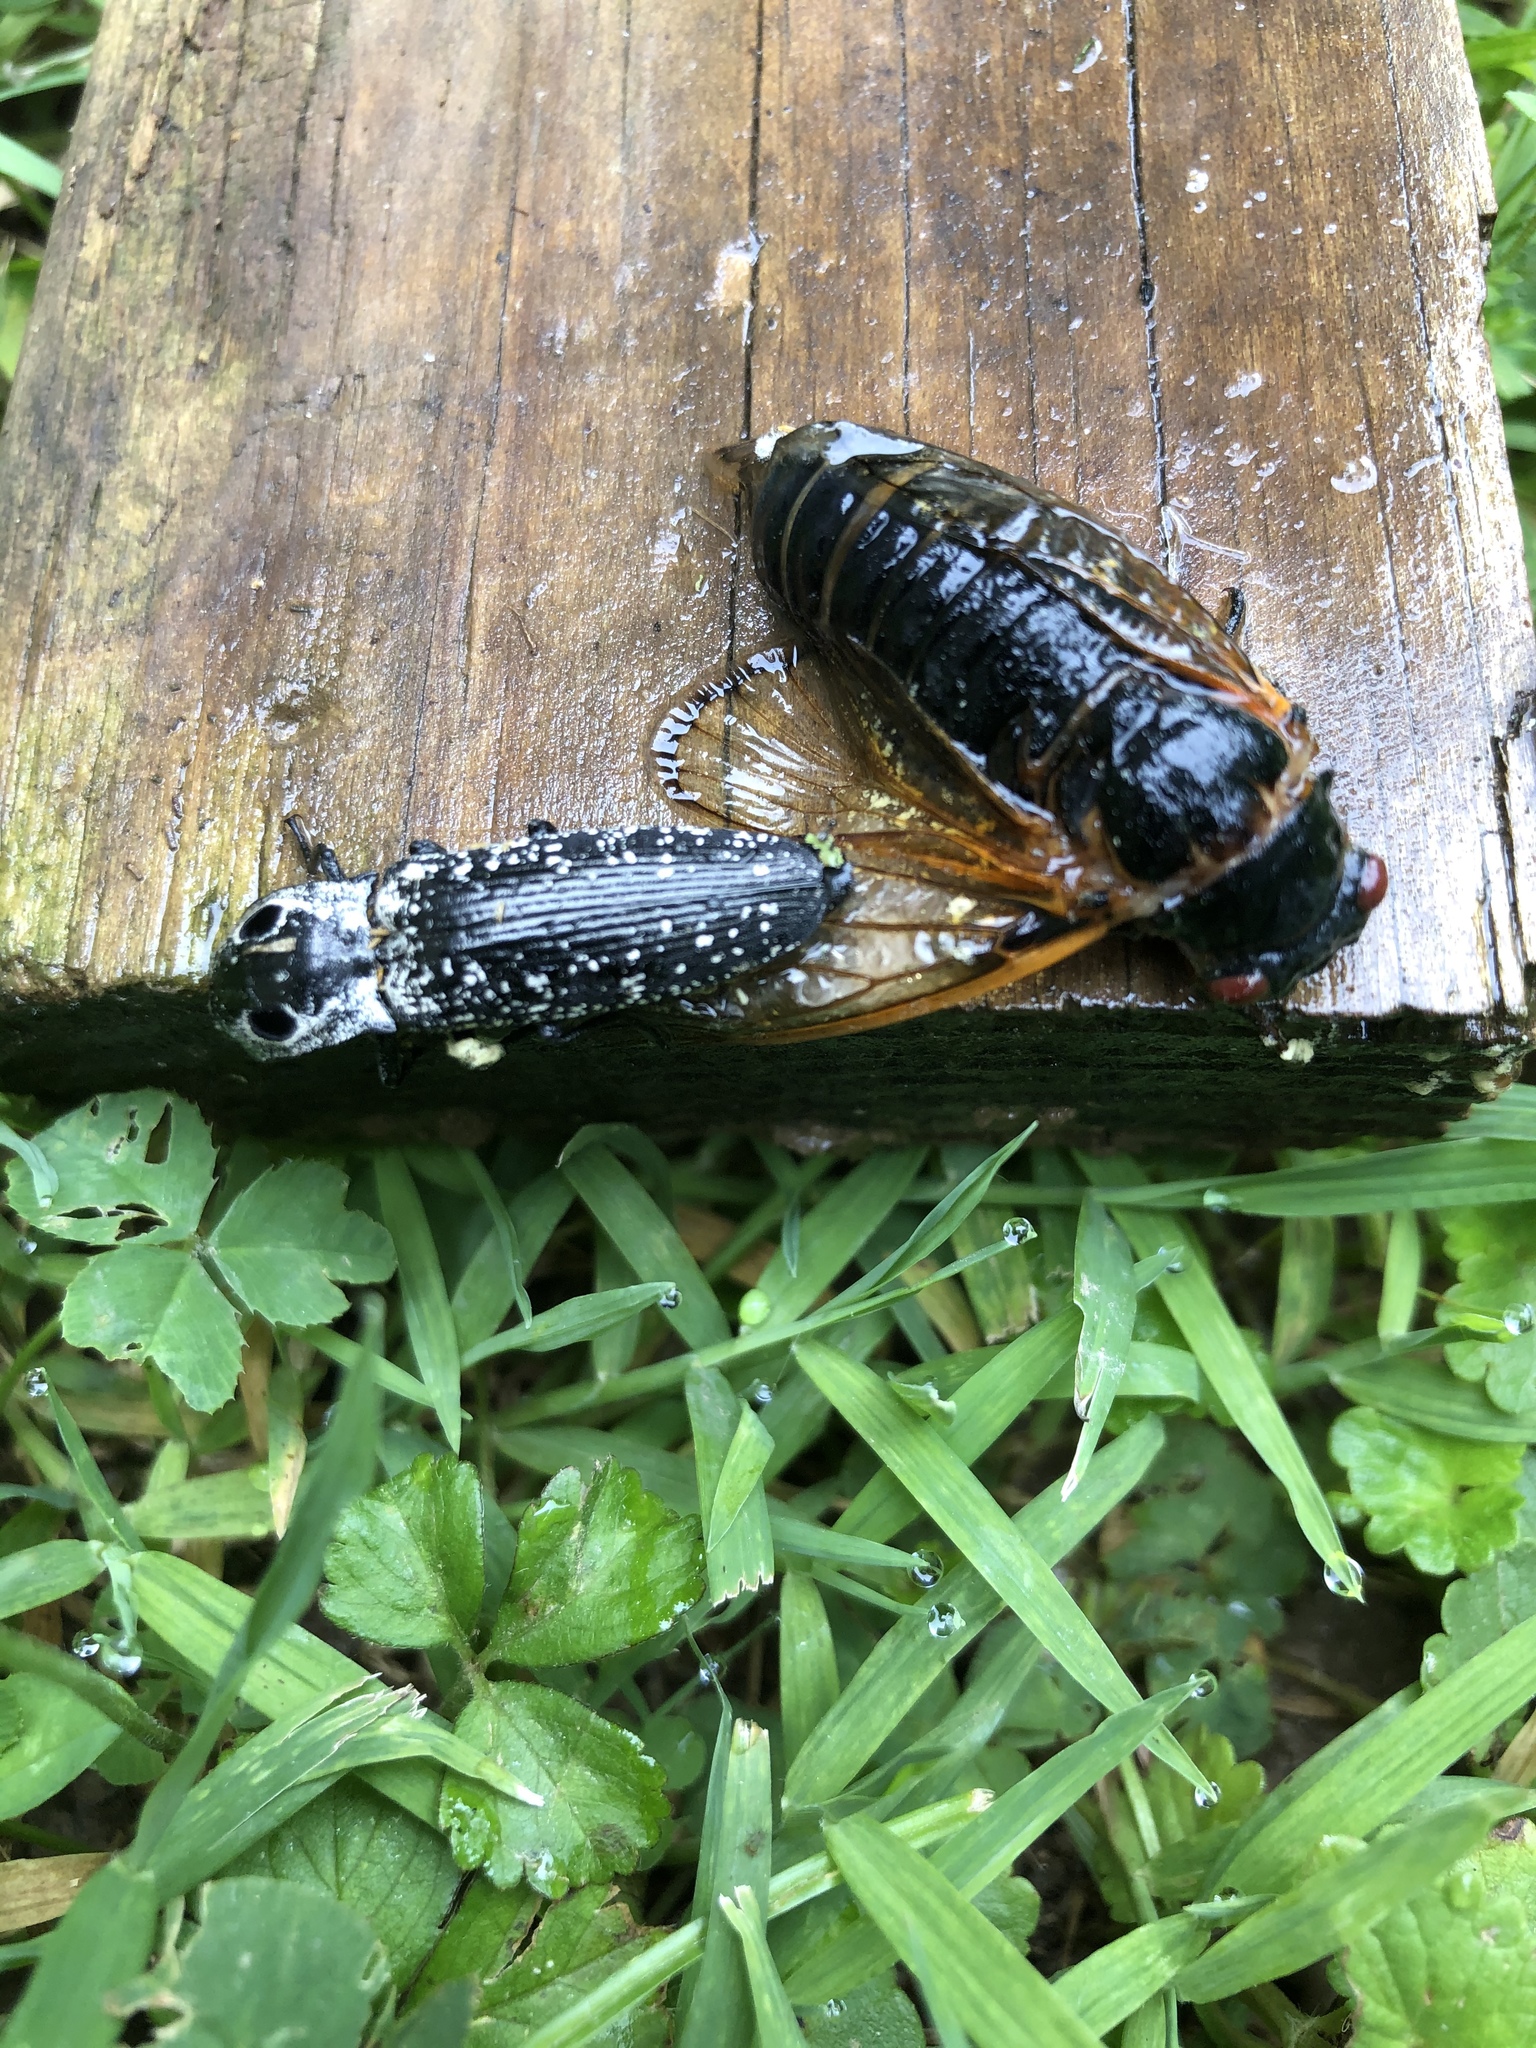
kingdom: Animalia
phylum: Arthropoda
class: Insecta
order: Coleoptera
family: Elateridae
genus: Alaus
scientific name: Alaus oculatus
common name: Eastern eyed click beetle
